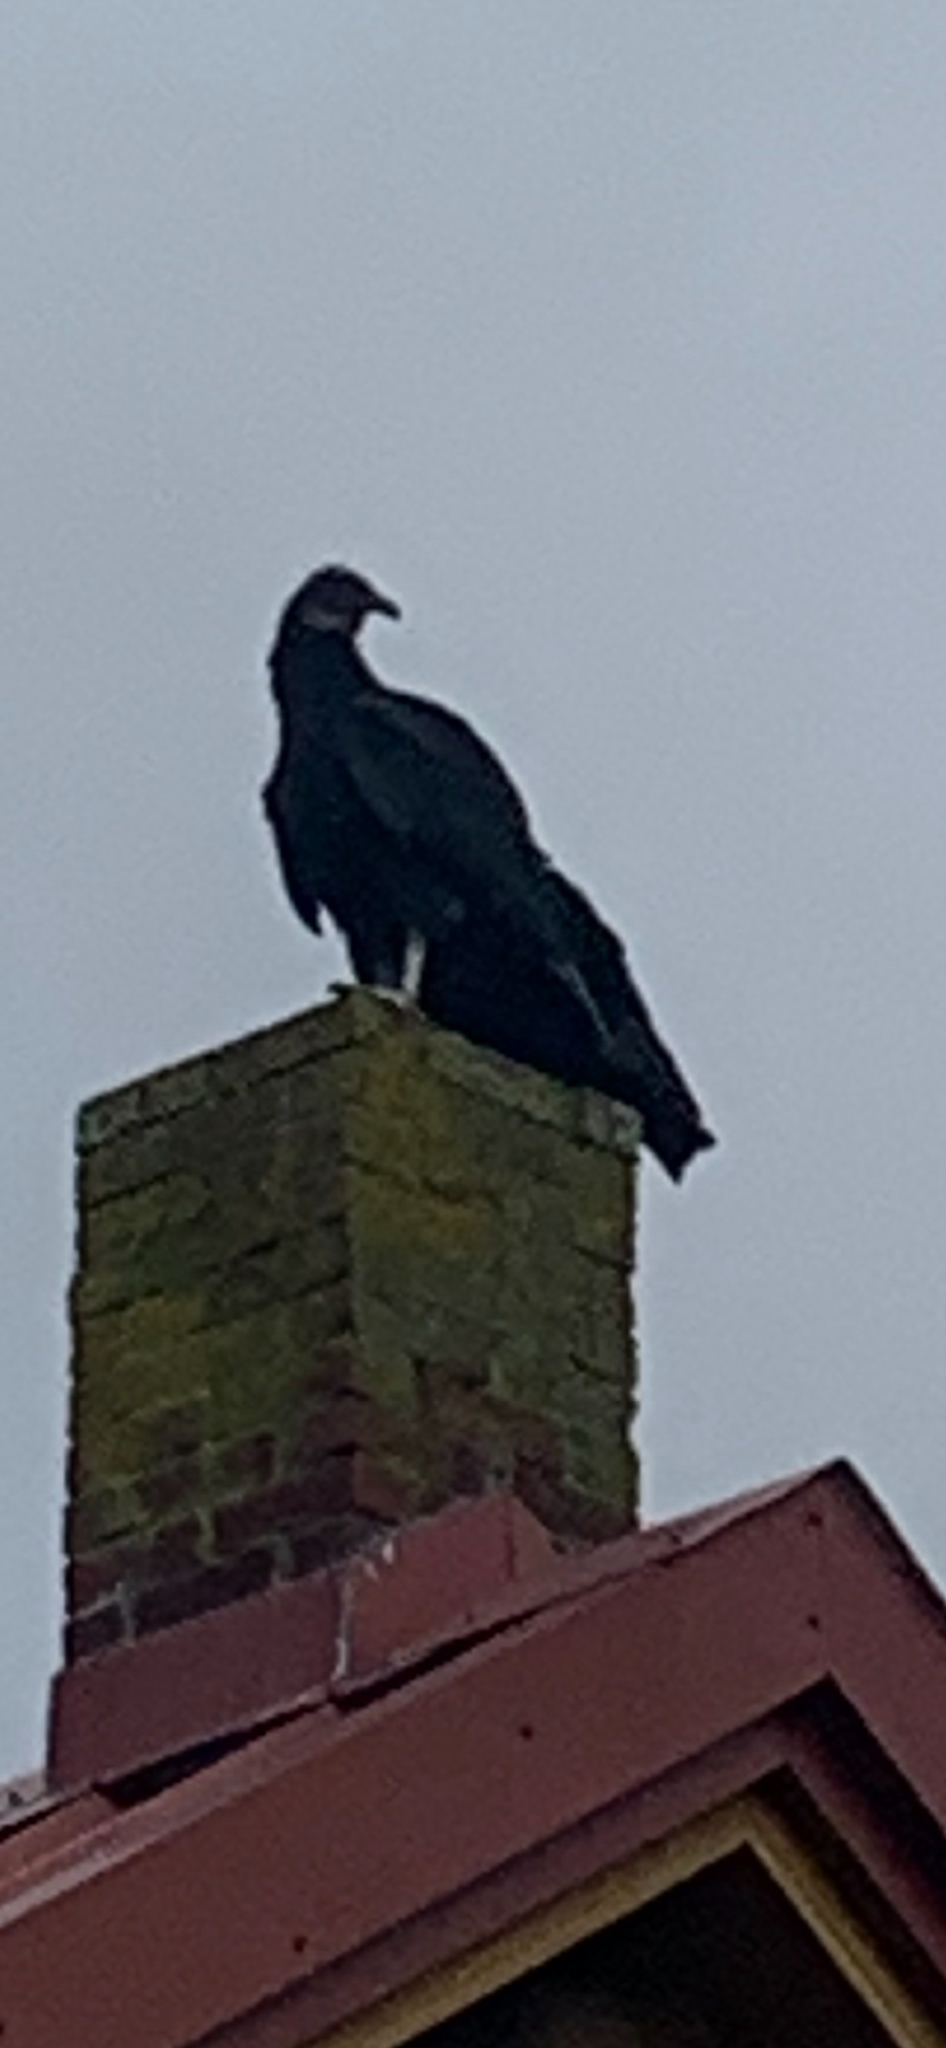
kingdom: Animalia
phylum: Chordata
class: Aves
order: Accipitriformes
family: Cathartidae
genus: Coragyps
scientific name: Coragyps atratus
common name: Black vulture
